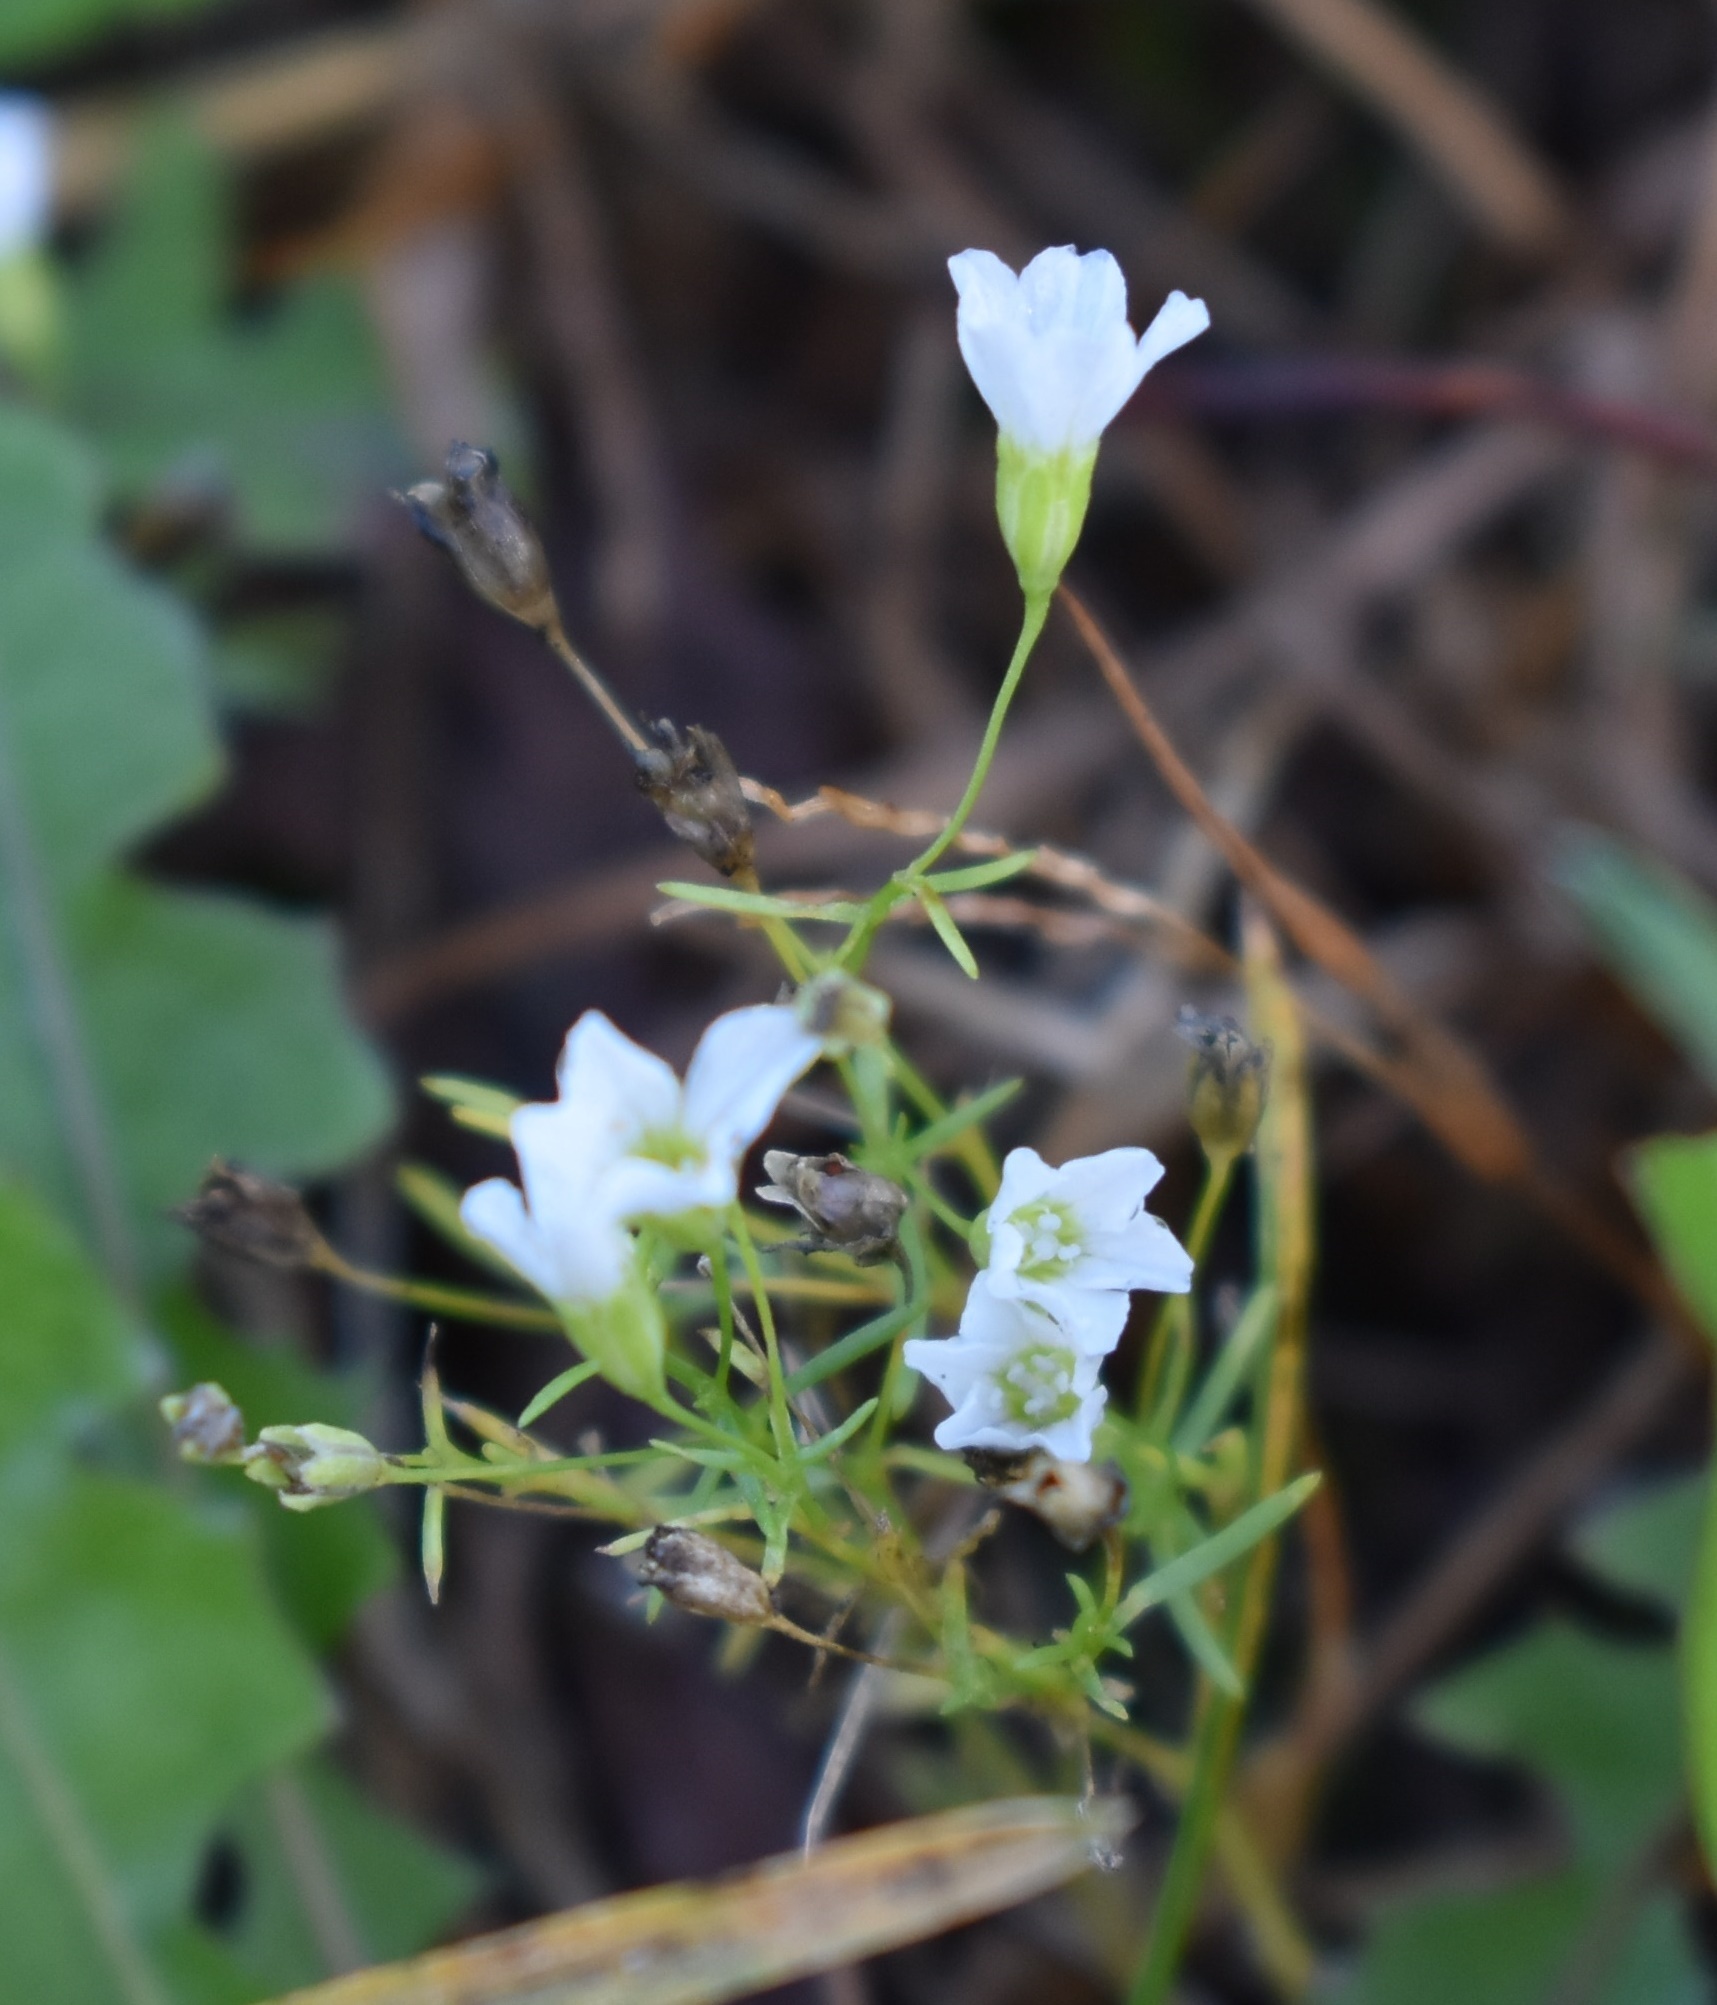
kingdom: Plantae
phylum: Tracheophyta
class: Magnoliopsida
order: Caryophyllales
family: Caryophyllaceae
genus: Psammophiliella
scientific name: Psammophiliella muralis
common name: Cushion baby's-breath
